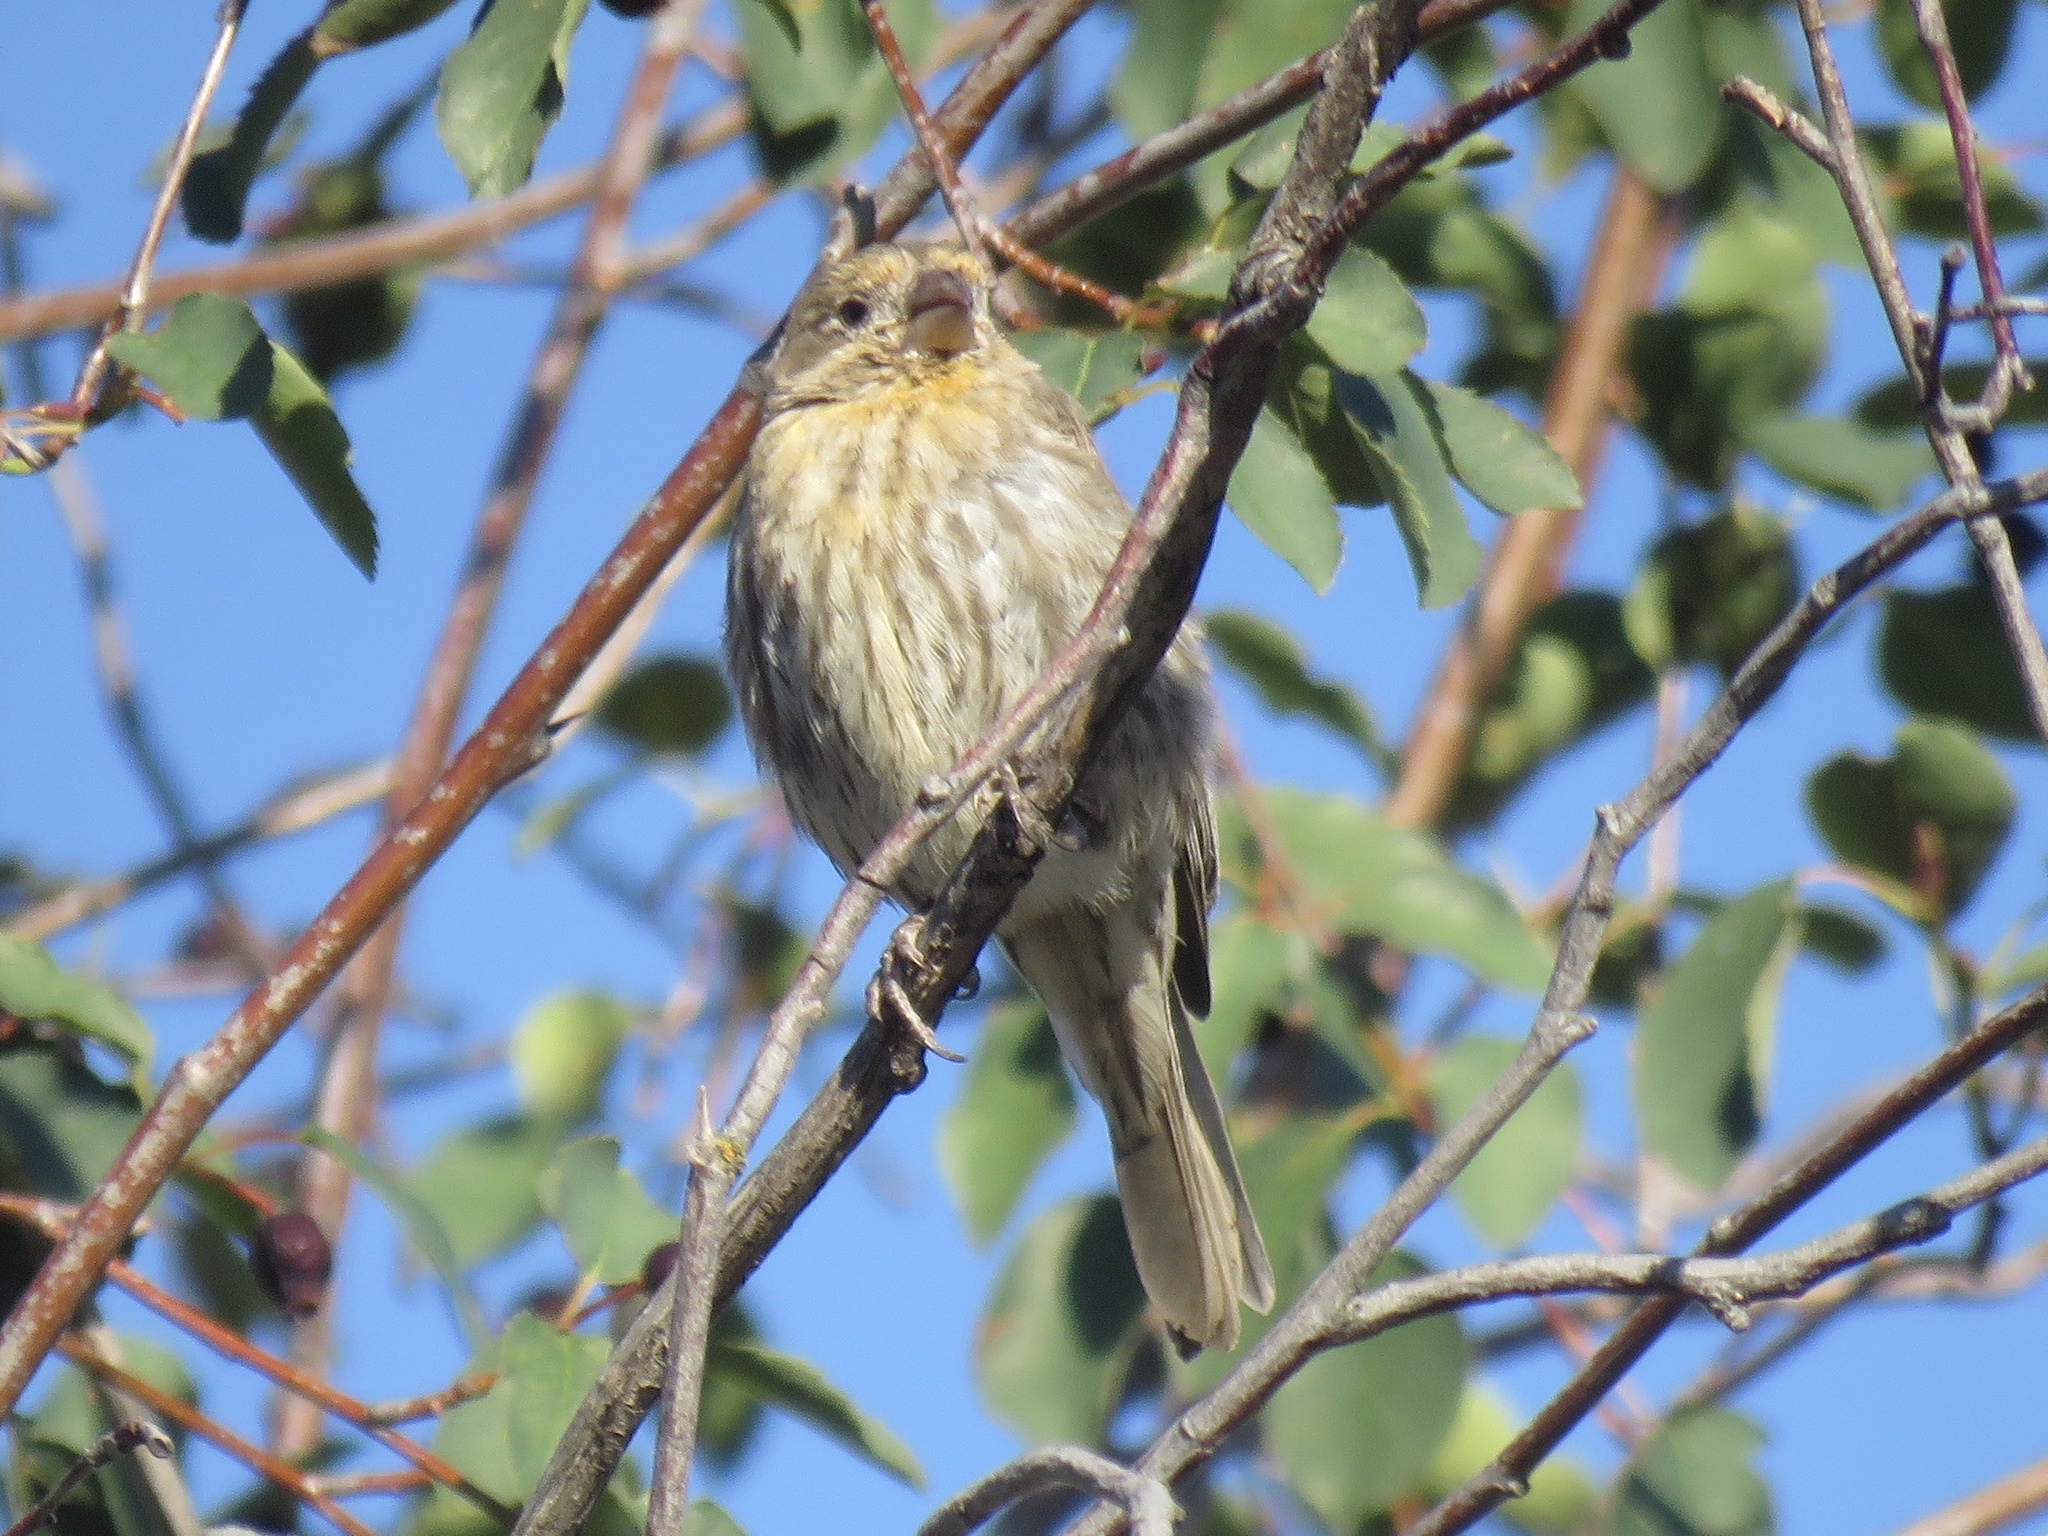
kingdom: Animalia
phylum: Chordata
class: Aves
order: Passeriformes
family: Fringillidae
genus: Haemorhous
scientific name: Haemorhous mexicanus
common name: House finch
